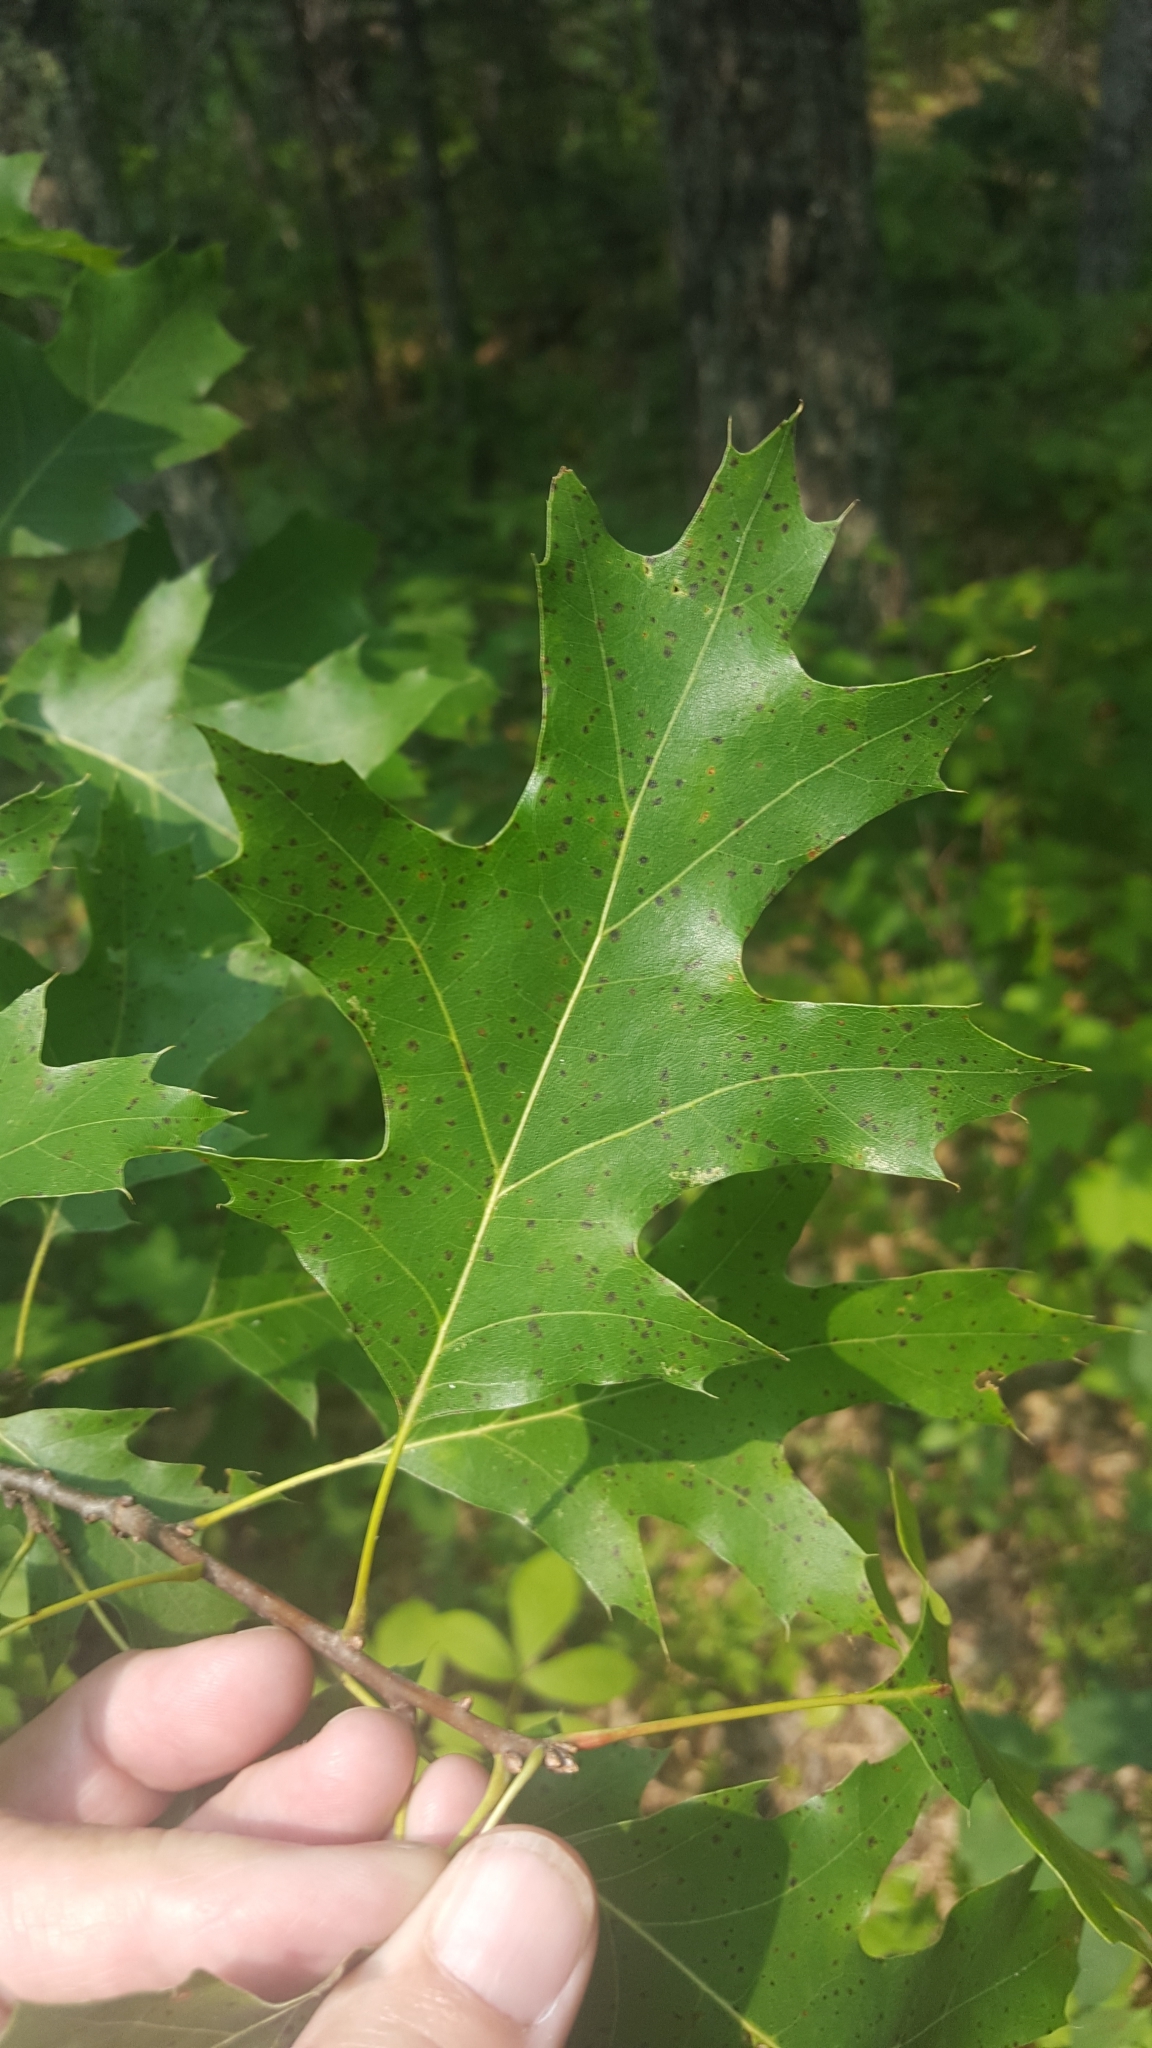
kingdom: Plantae
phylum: Tracheophyta
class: Magnoliopsida
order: Fagales
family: Fagaceae
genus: Quercus
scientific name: Quercus rubra
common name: Red oak
